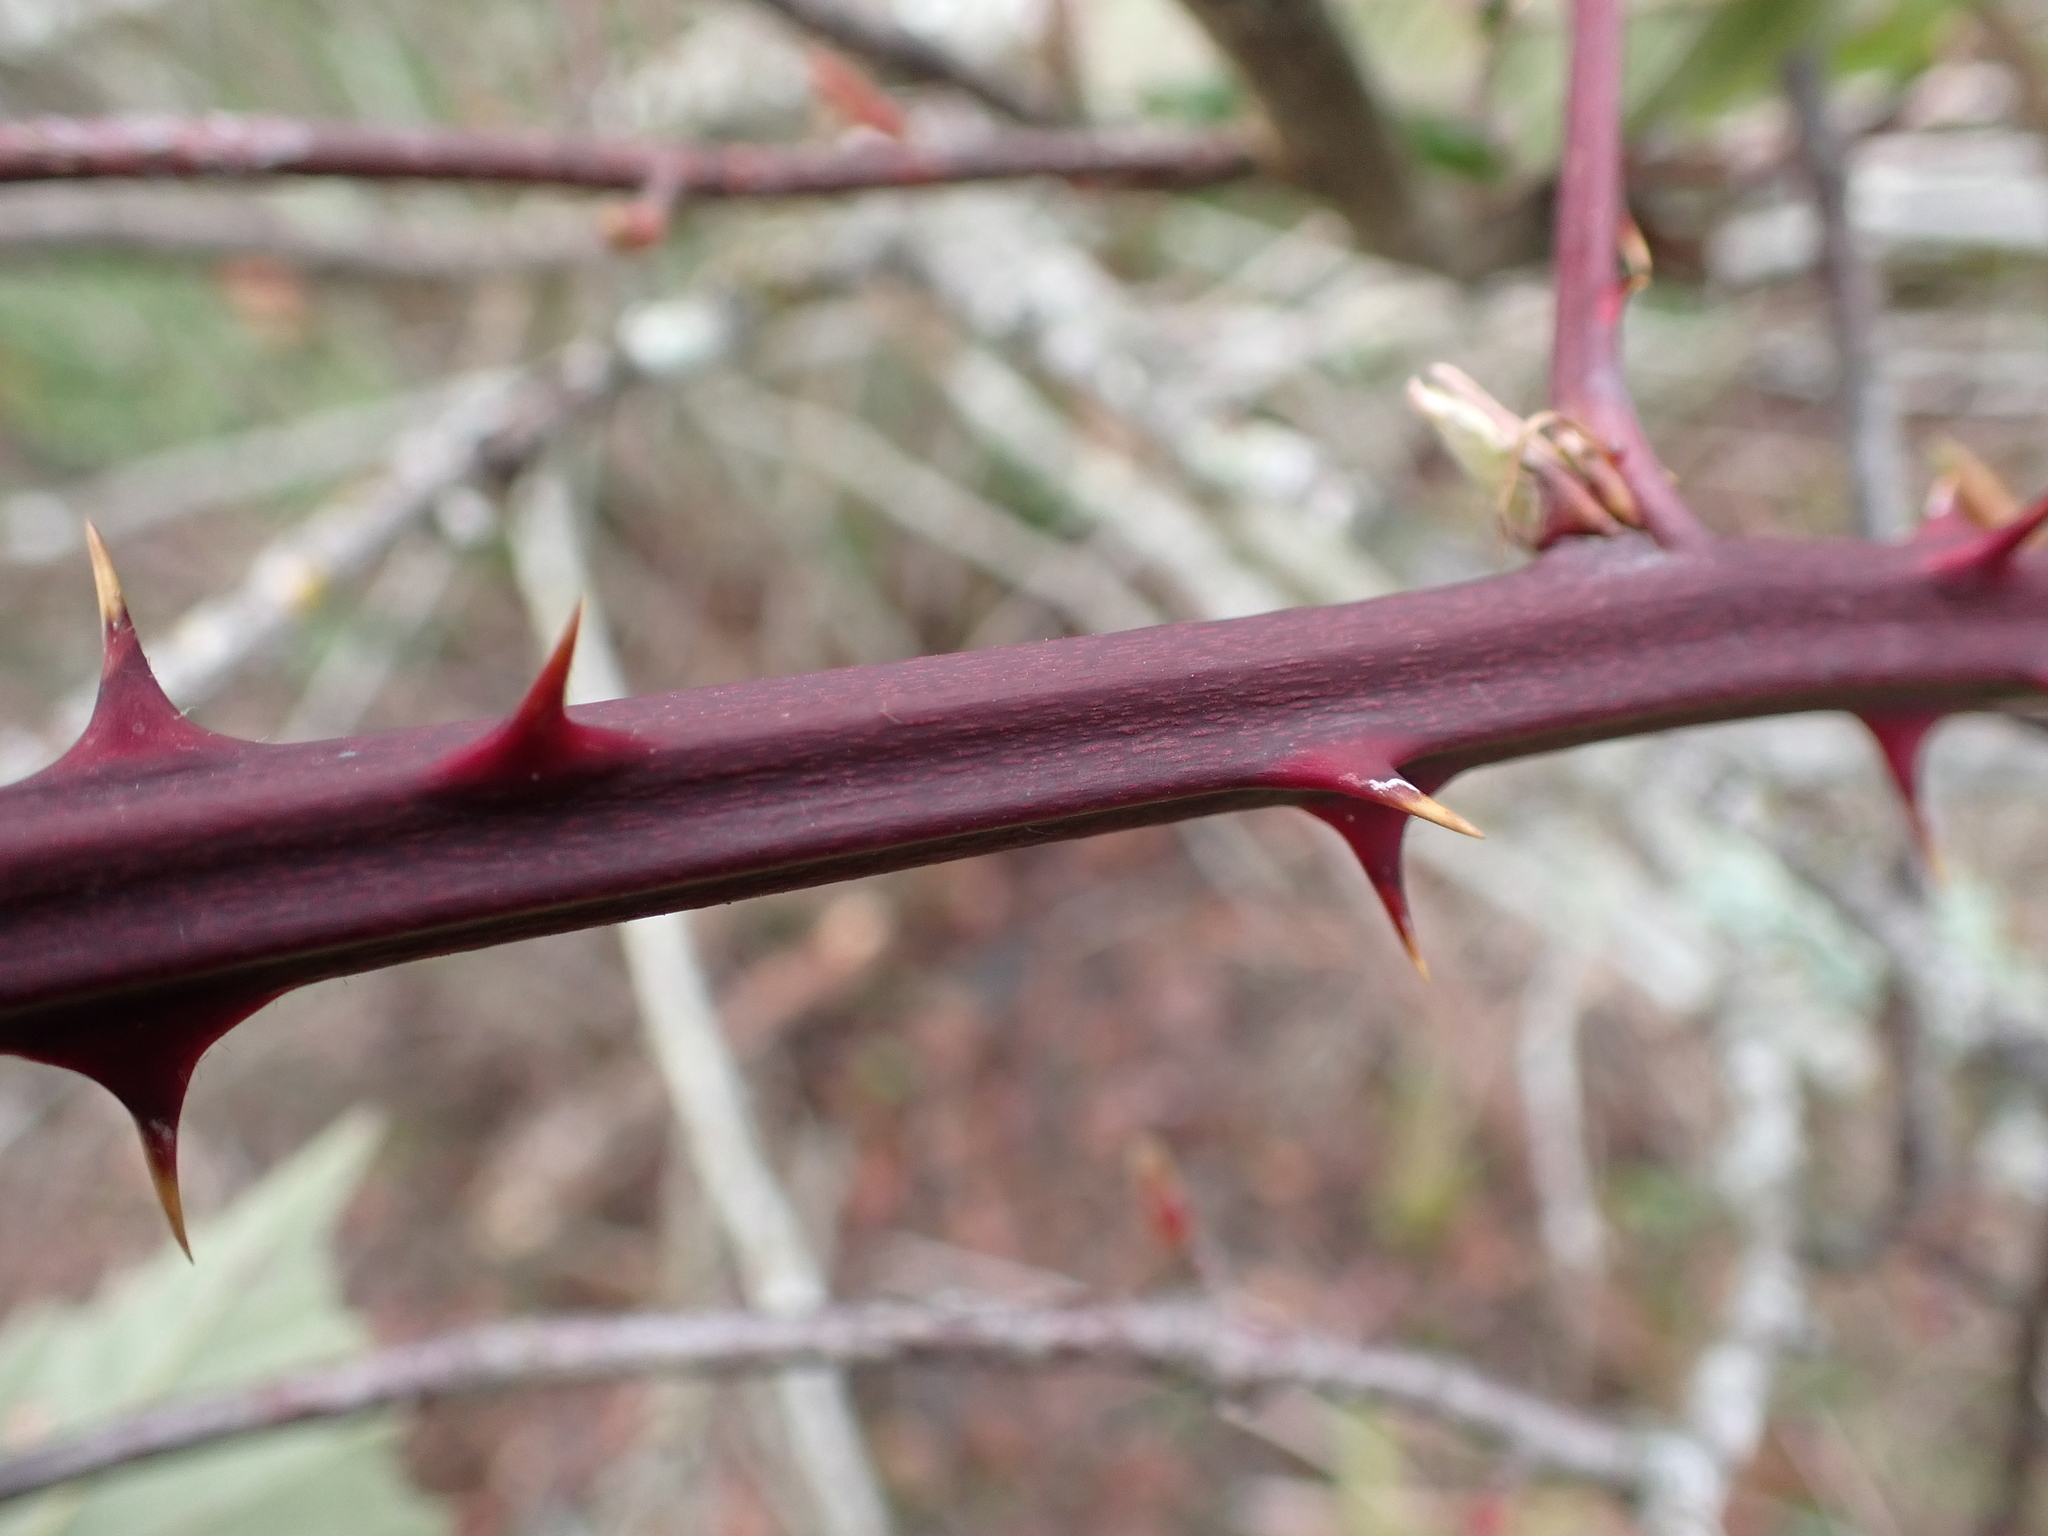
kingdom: Plantae
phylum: Tracheophyta
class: Magnoliopsida
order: Rosales
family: Rosaceae
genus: Rubus
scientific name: Rubus bifrons
